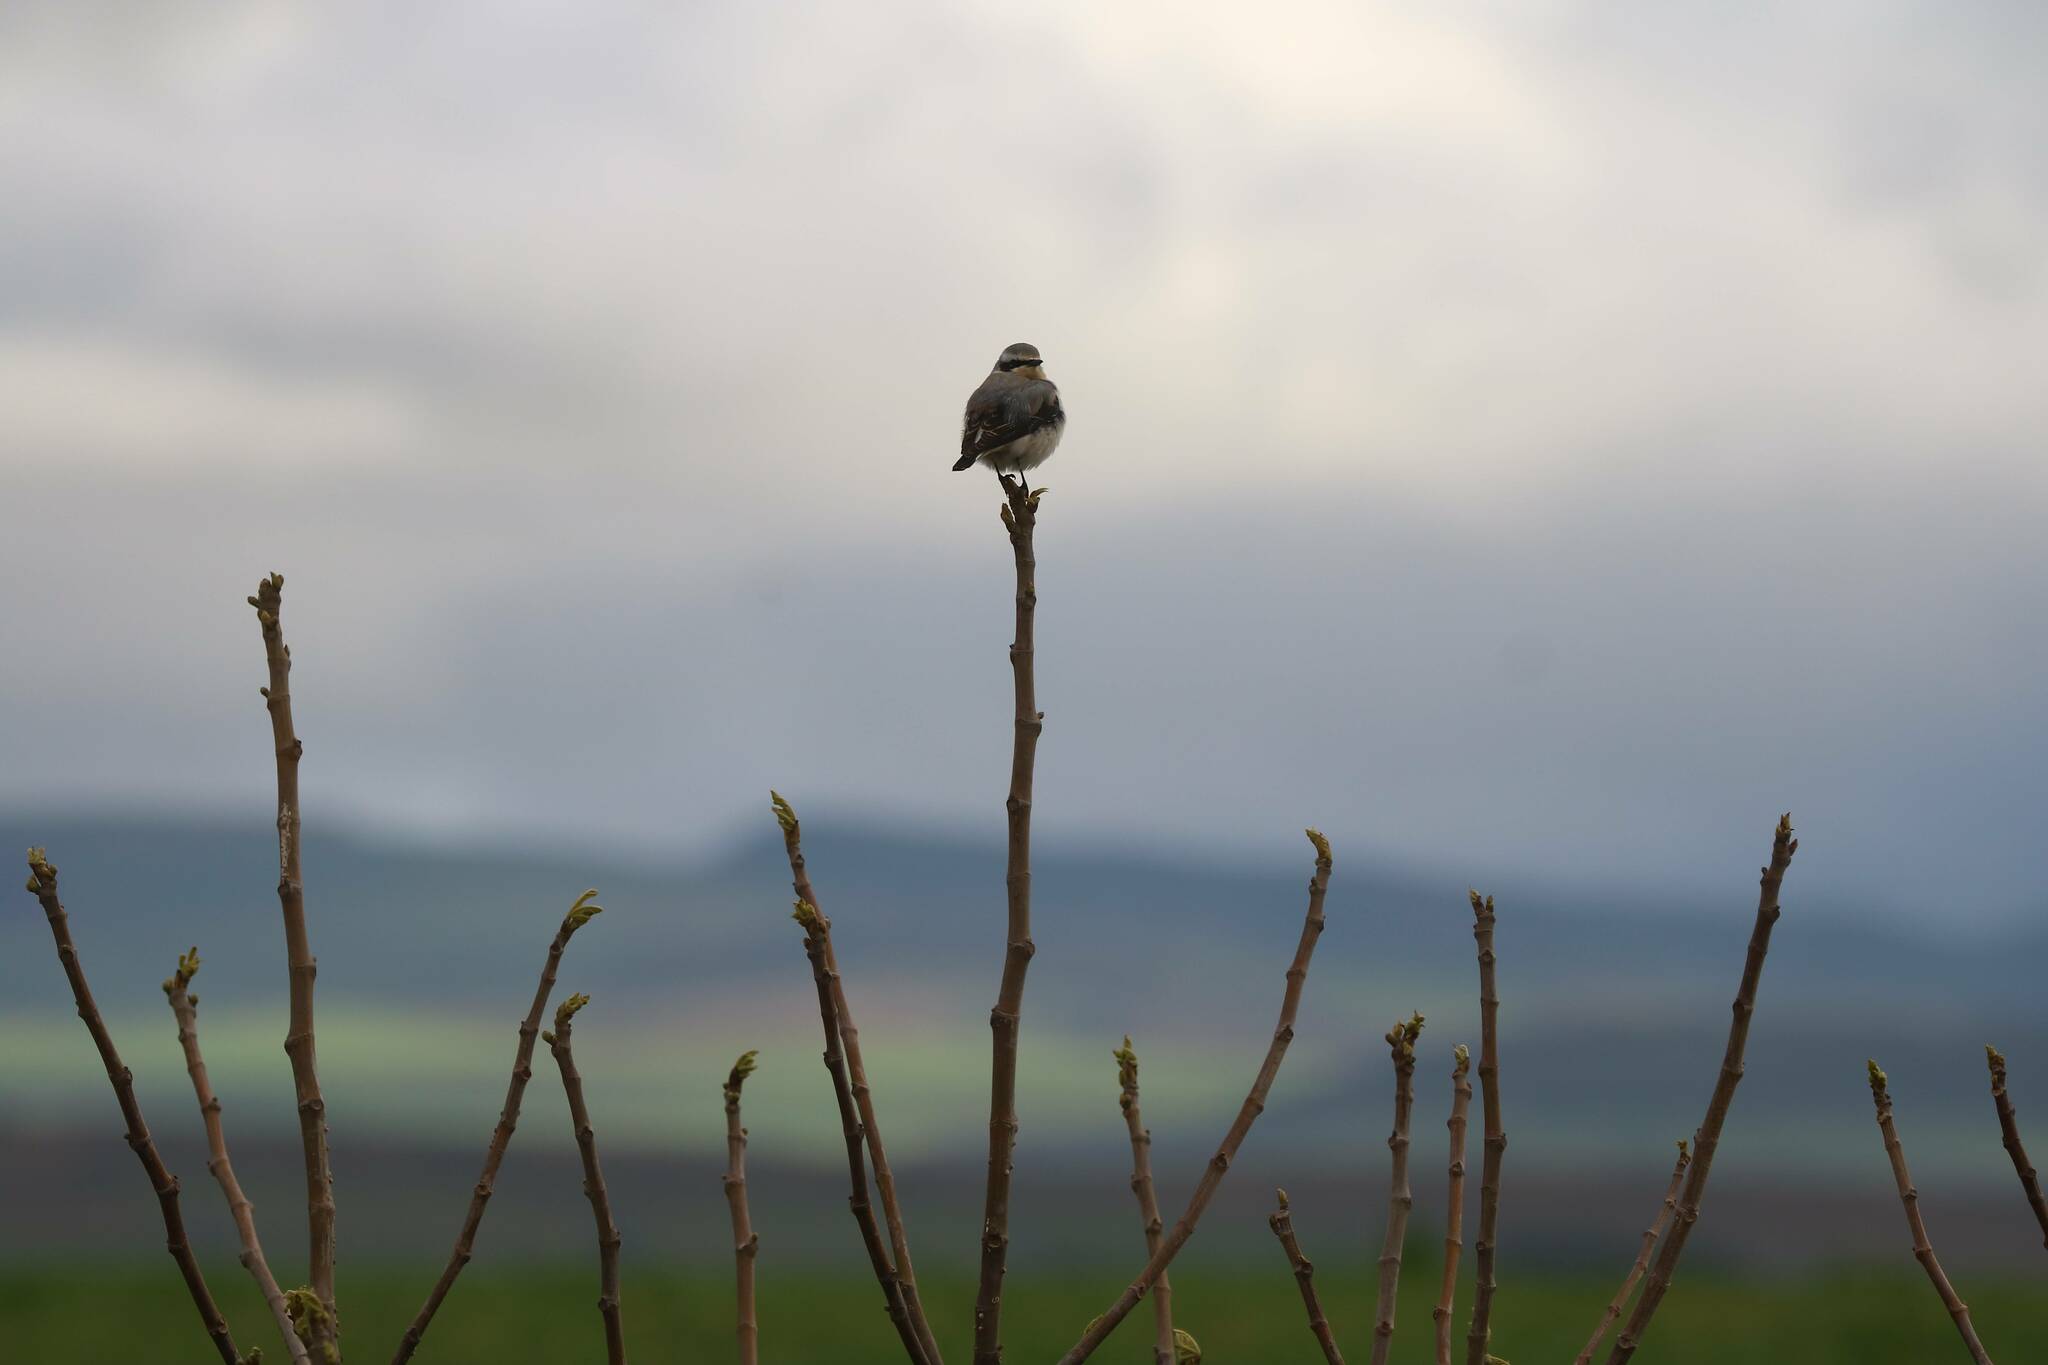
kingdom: Animalia
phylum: Chordata
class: Aves
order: Passeriformes
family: Muscicapidae
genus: Oenanthe
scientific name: Oenanthe oenanthe
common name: Northern wheatear
